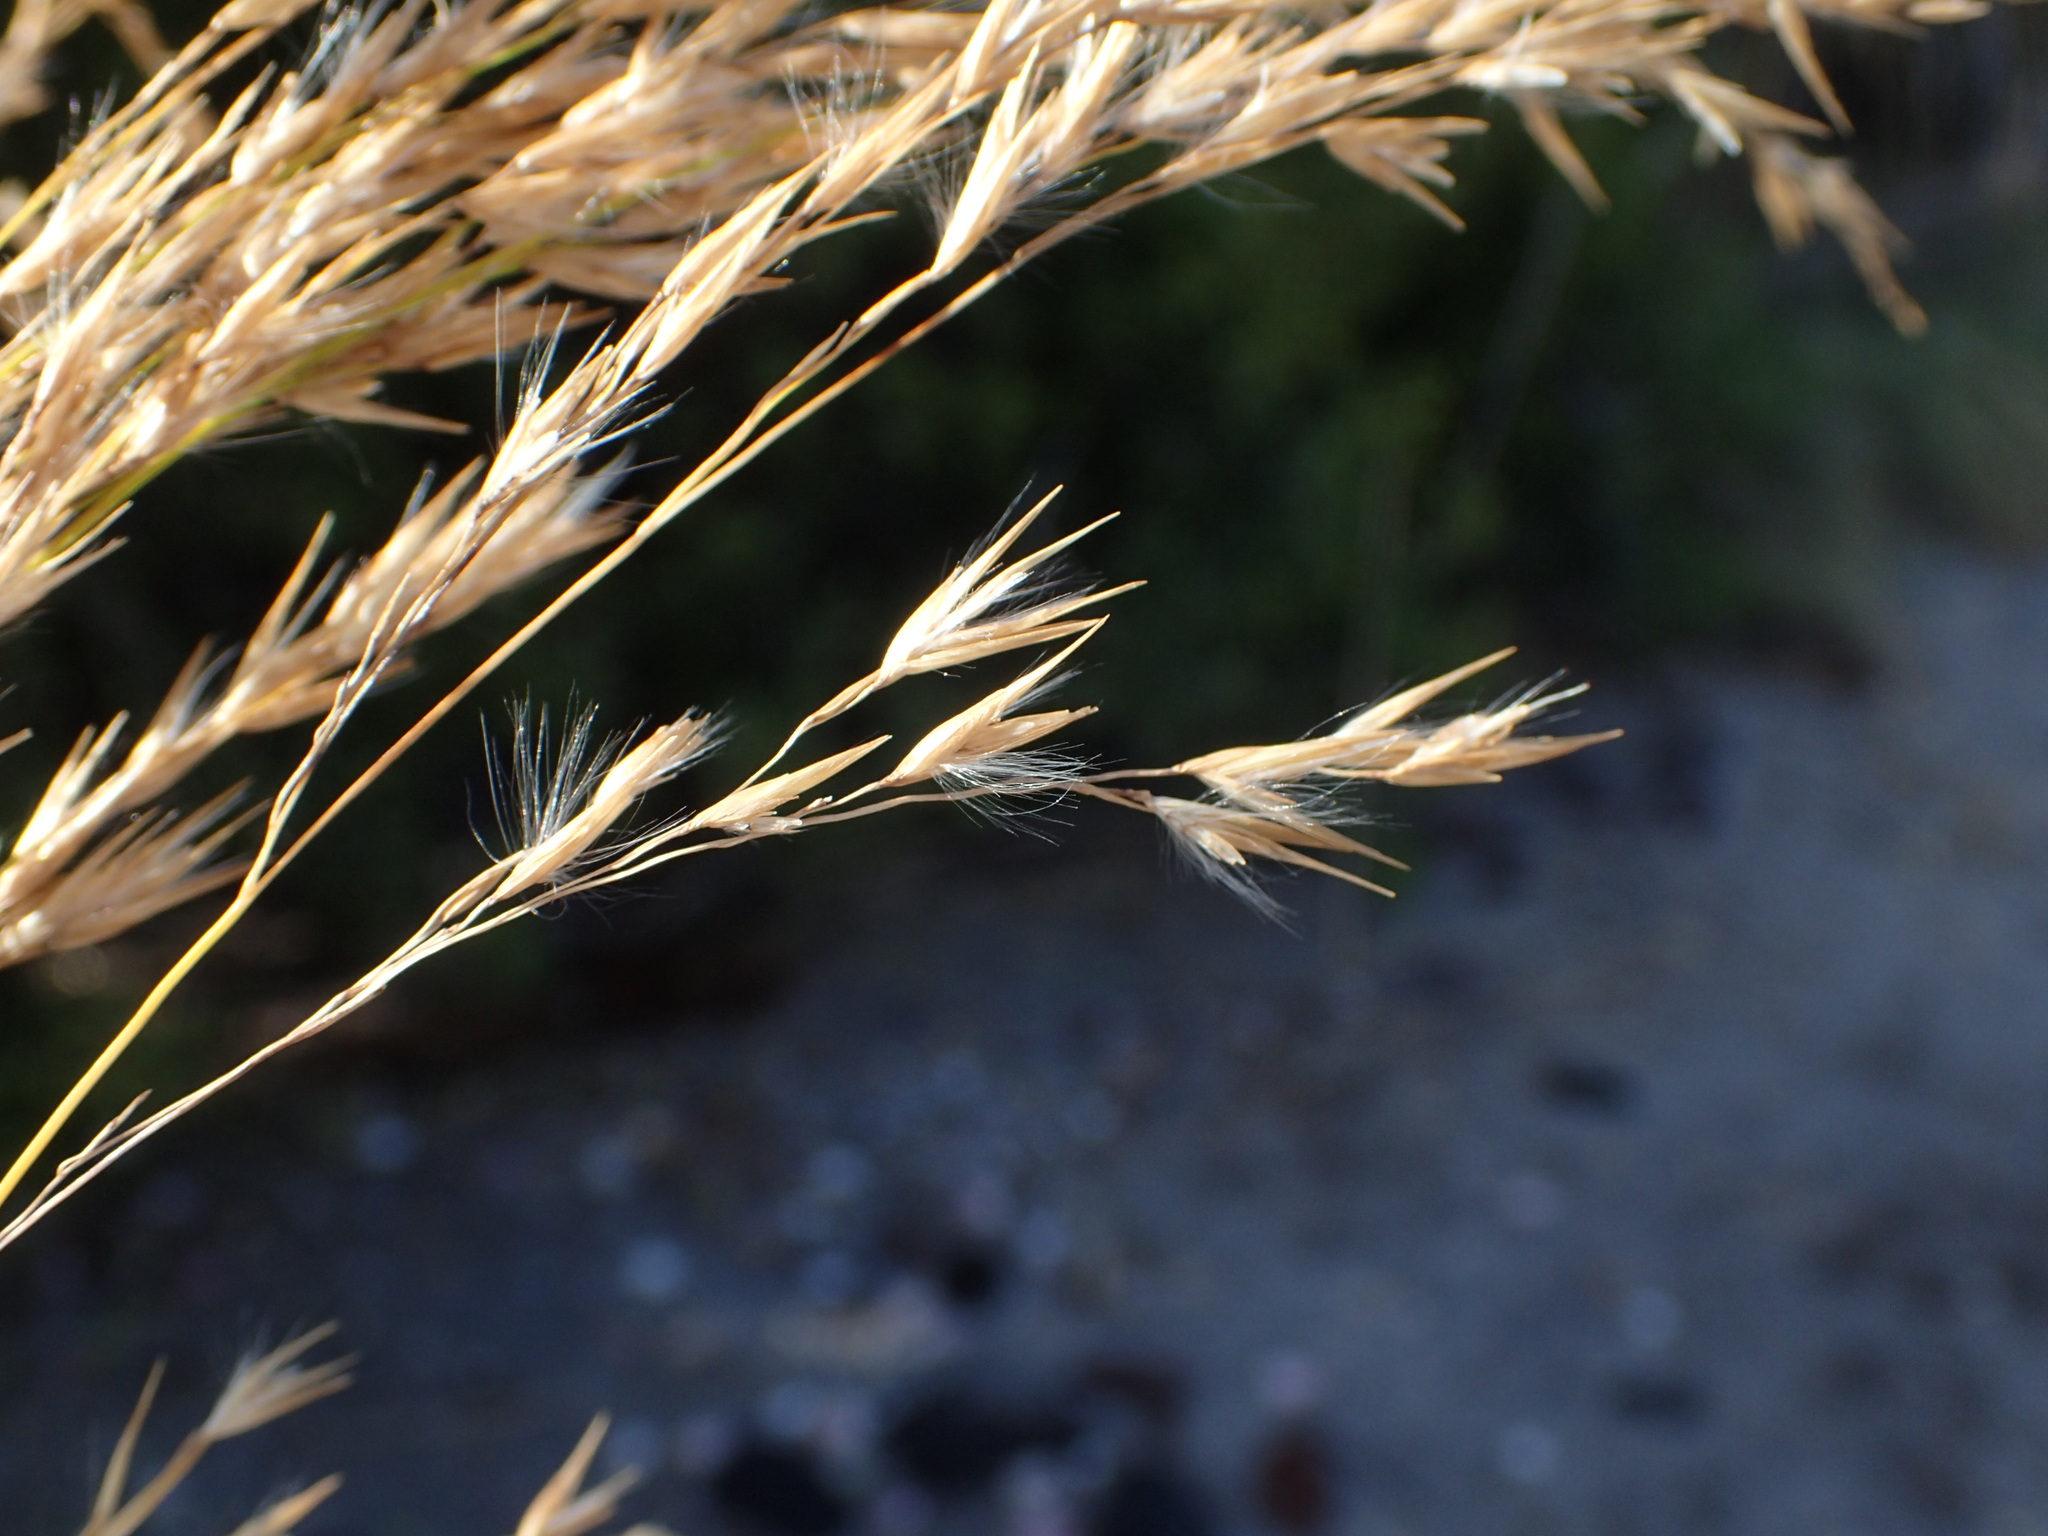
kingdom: Plantae
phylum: Tracheophyta
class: Liliopsida
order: Poales
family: Poaceae
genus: Phragmites
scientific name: Phragmites australis
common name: Common reed
